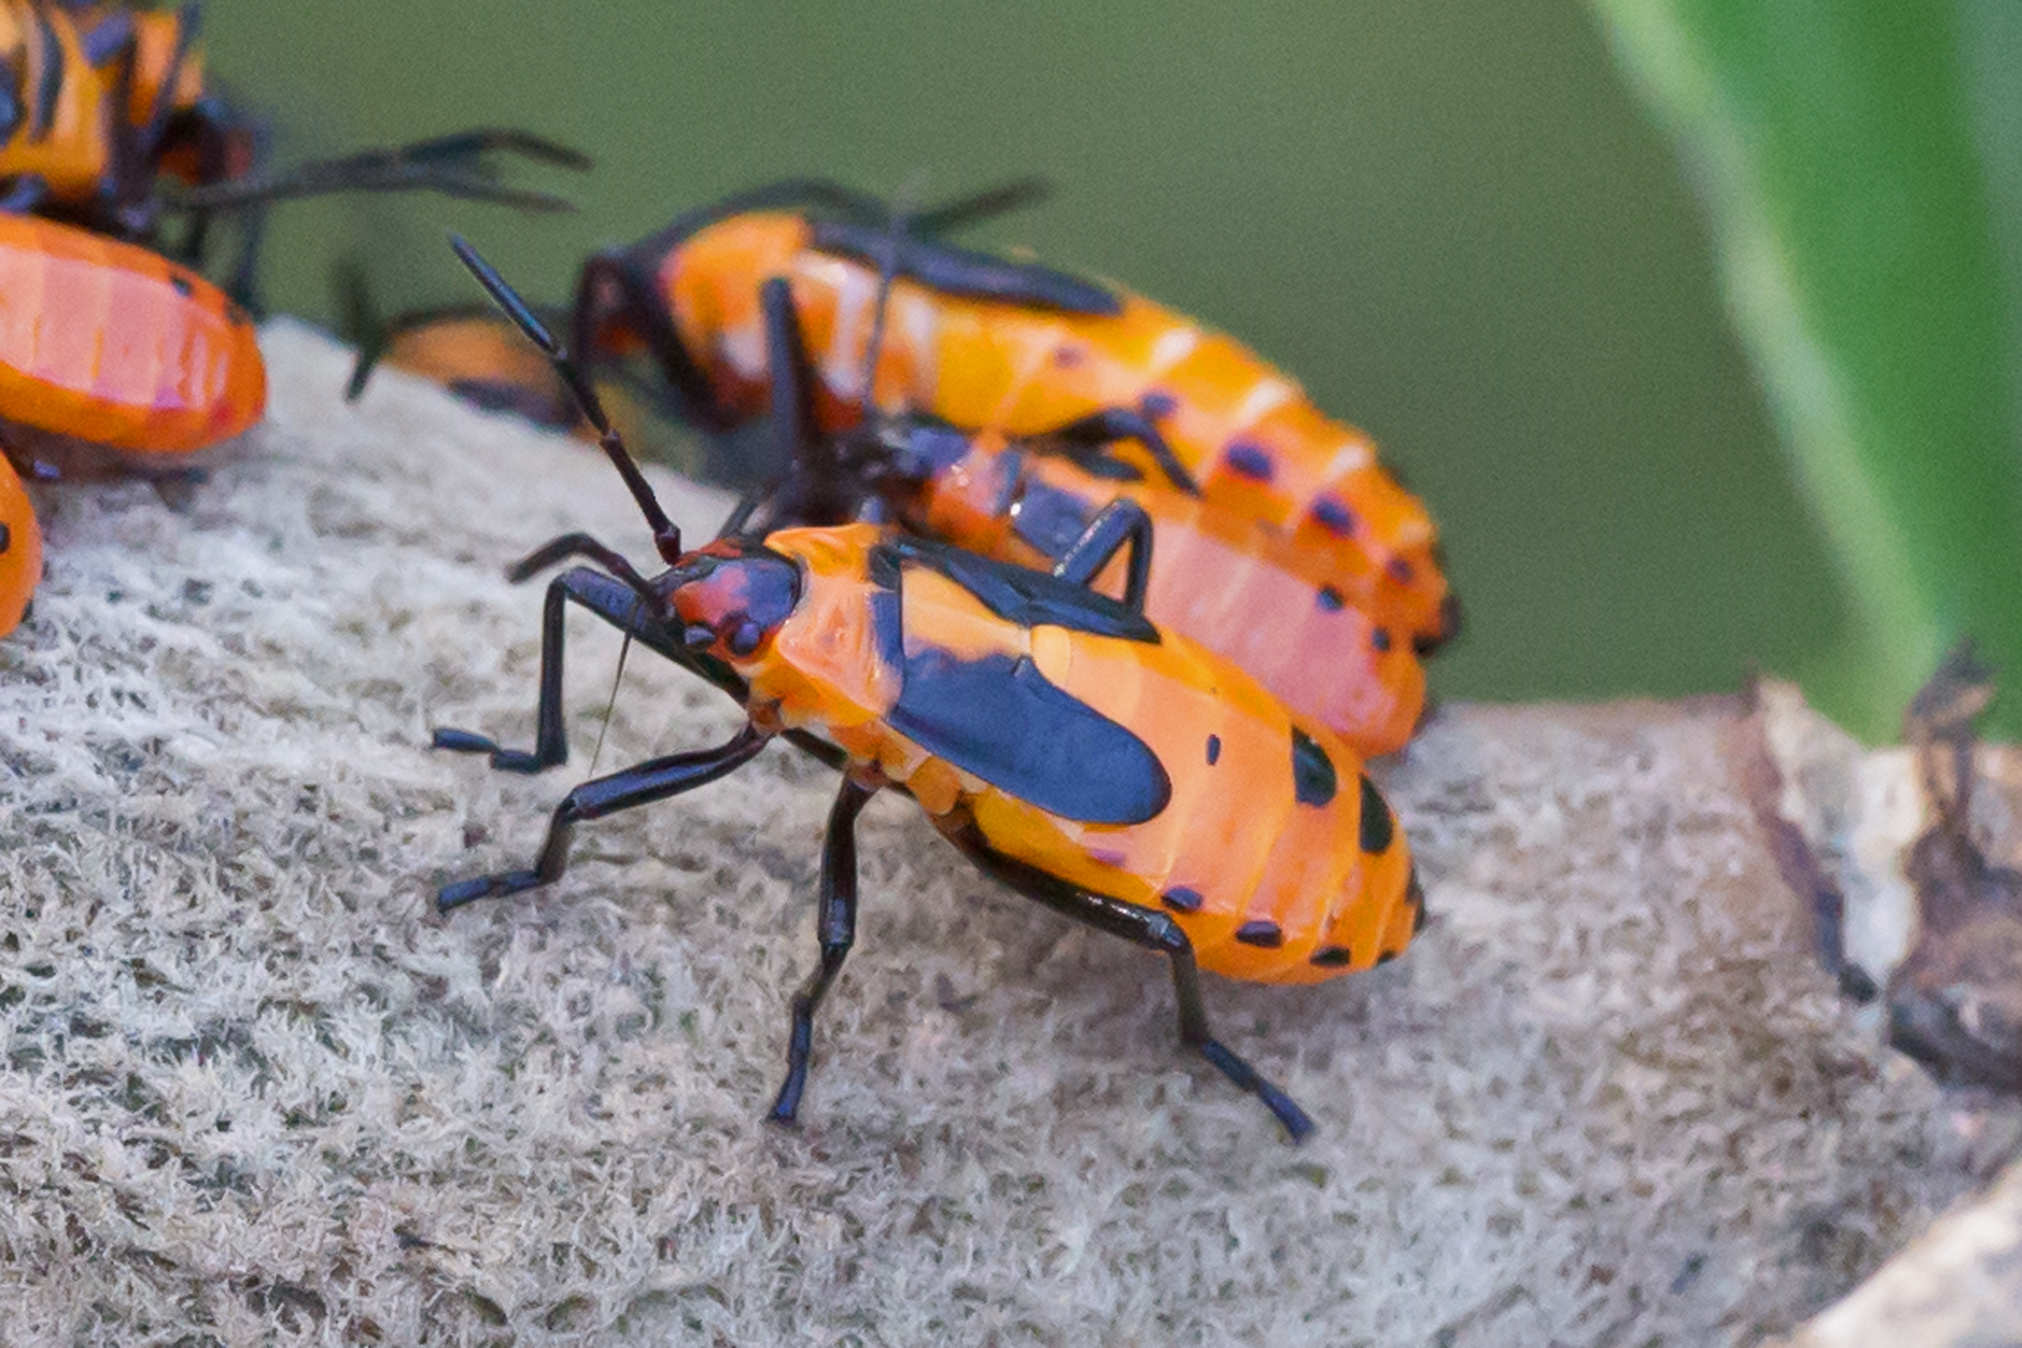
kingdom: Animalia
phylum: Arthropoda
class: Insecta
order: Hemiptera
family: Lygaeidae
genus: Oncopeltus
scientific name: Oncopeltus fasciatus
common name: Large milkweed bug
